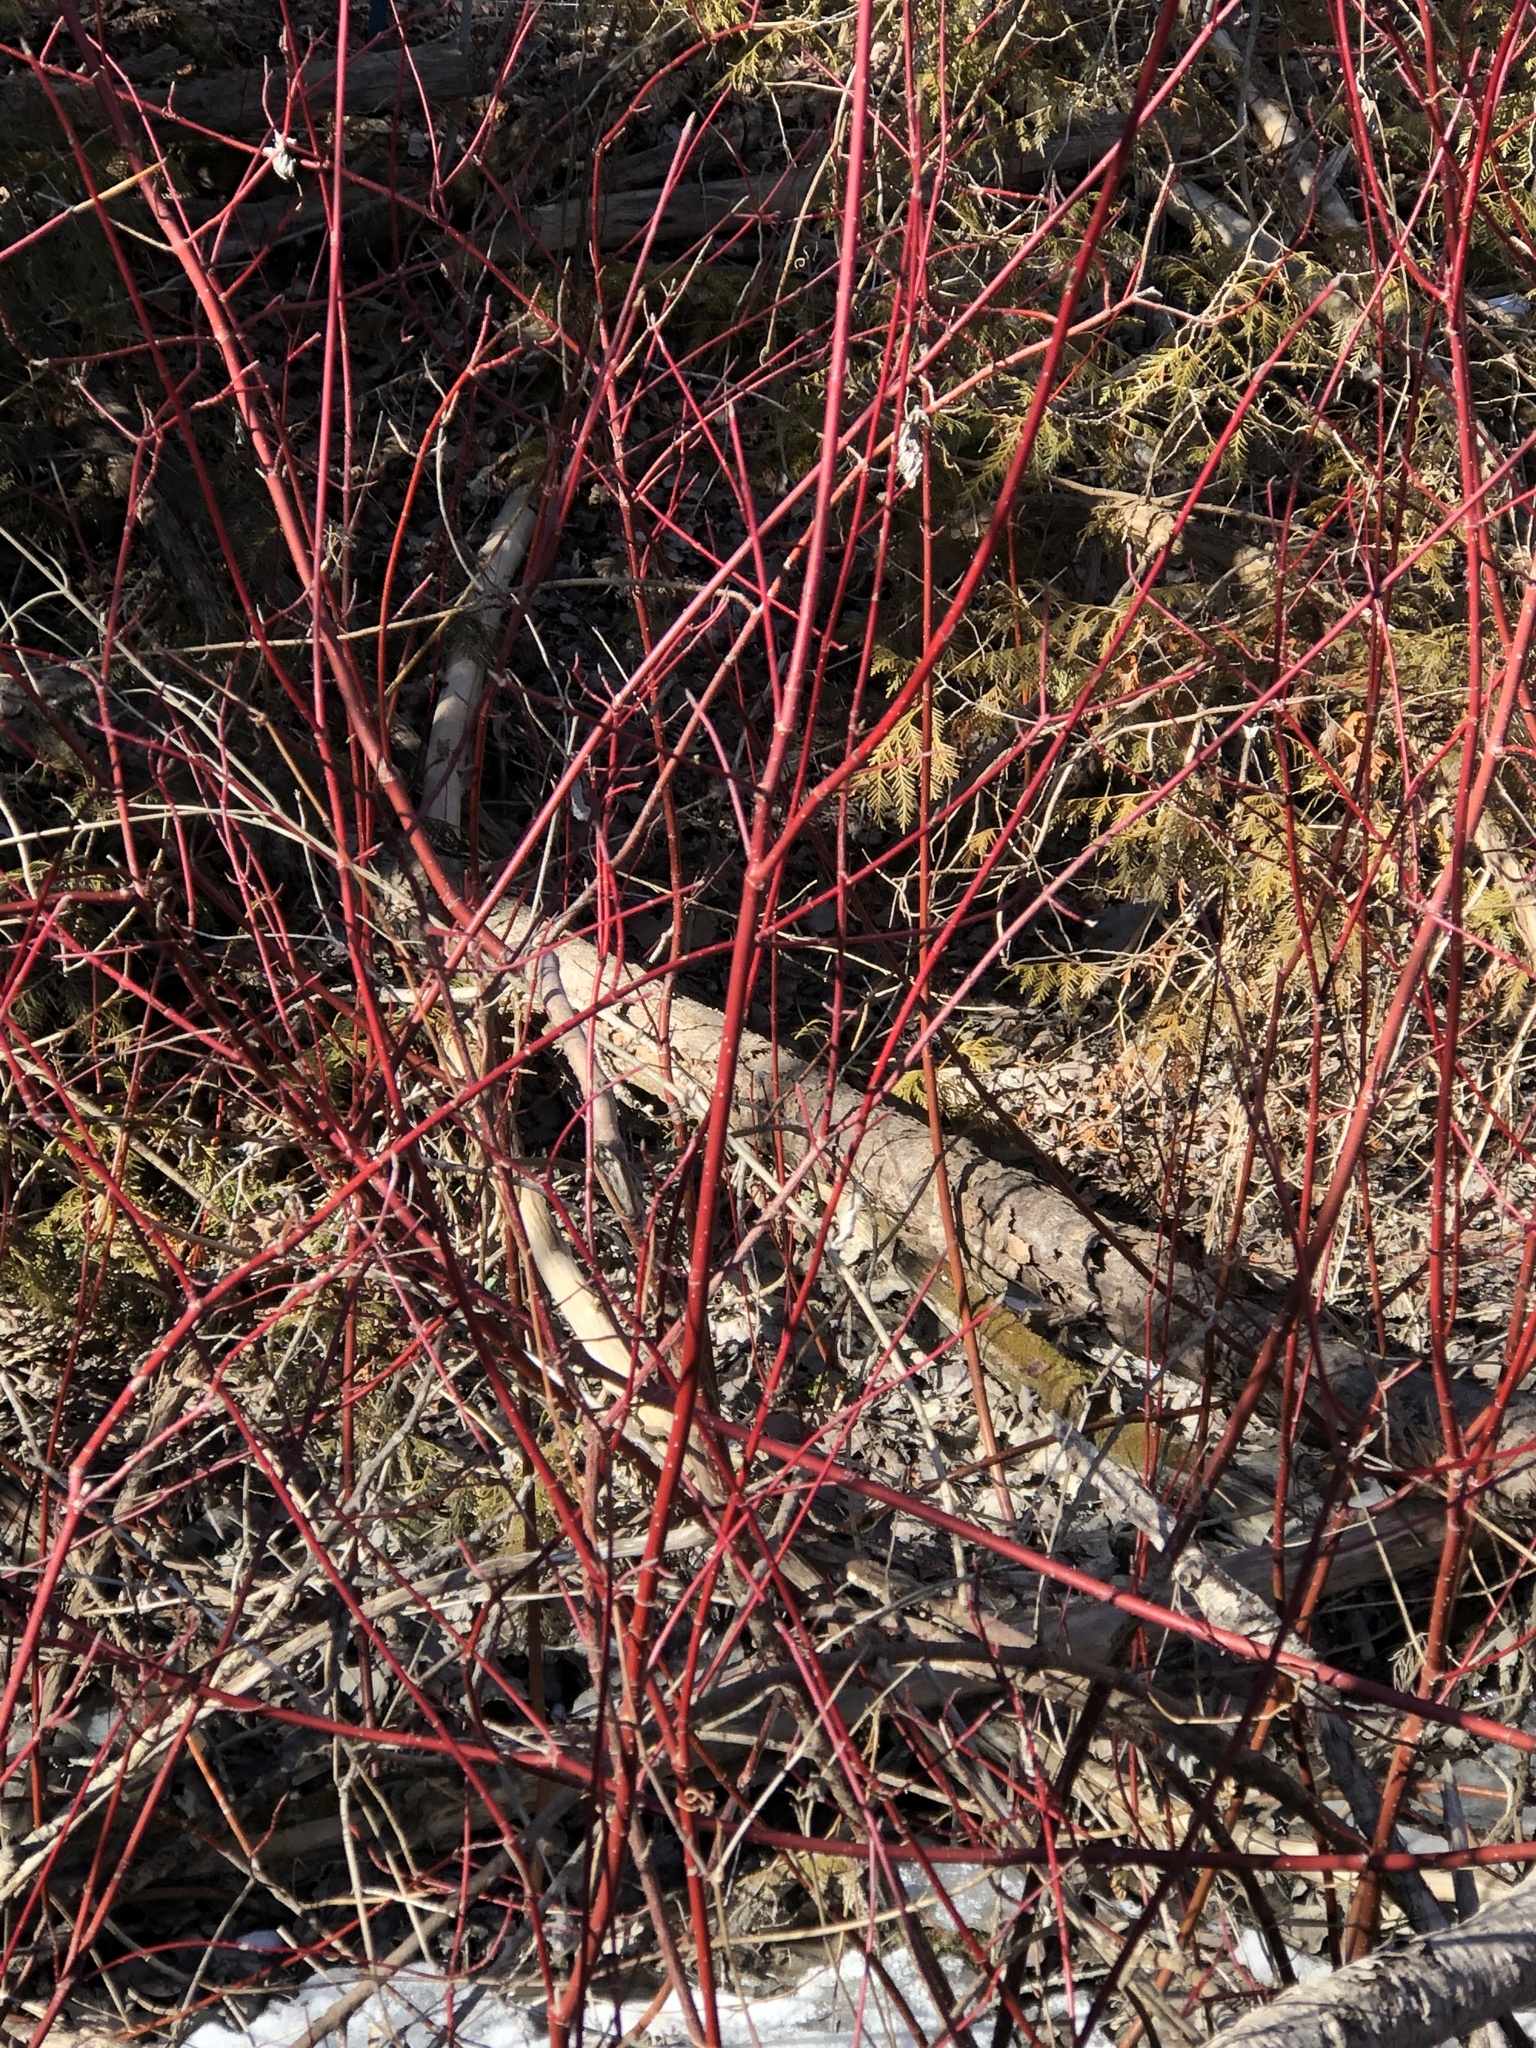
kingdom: Plantae
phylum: Tracheophyta
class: Magnoliopsida
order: Cornales
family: Cornaceae
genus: Cornus
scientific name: Cornus sericea
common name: Red-osier dogwood
